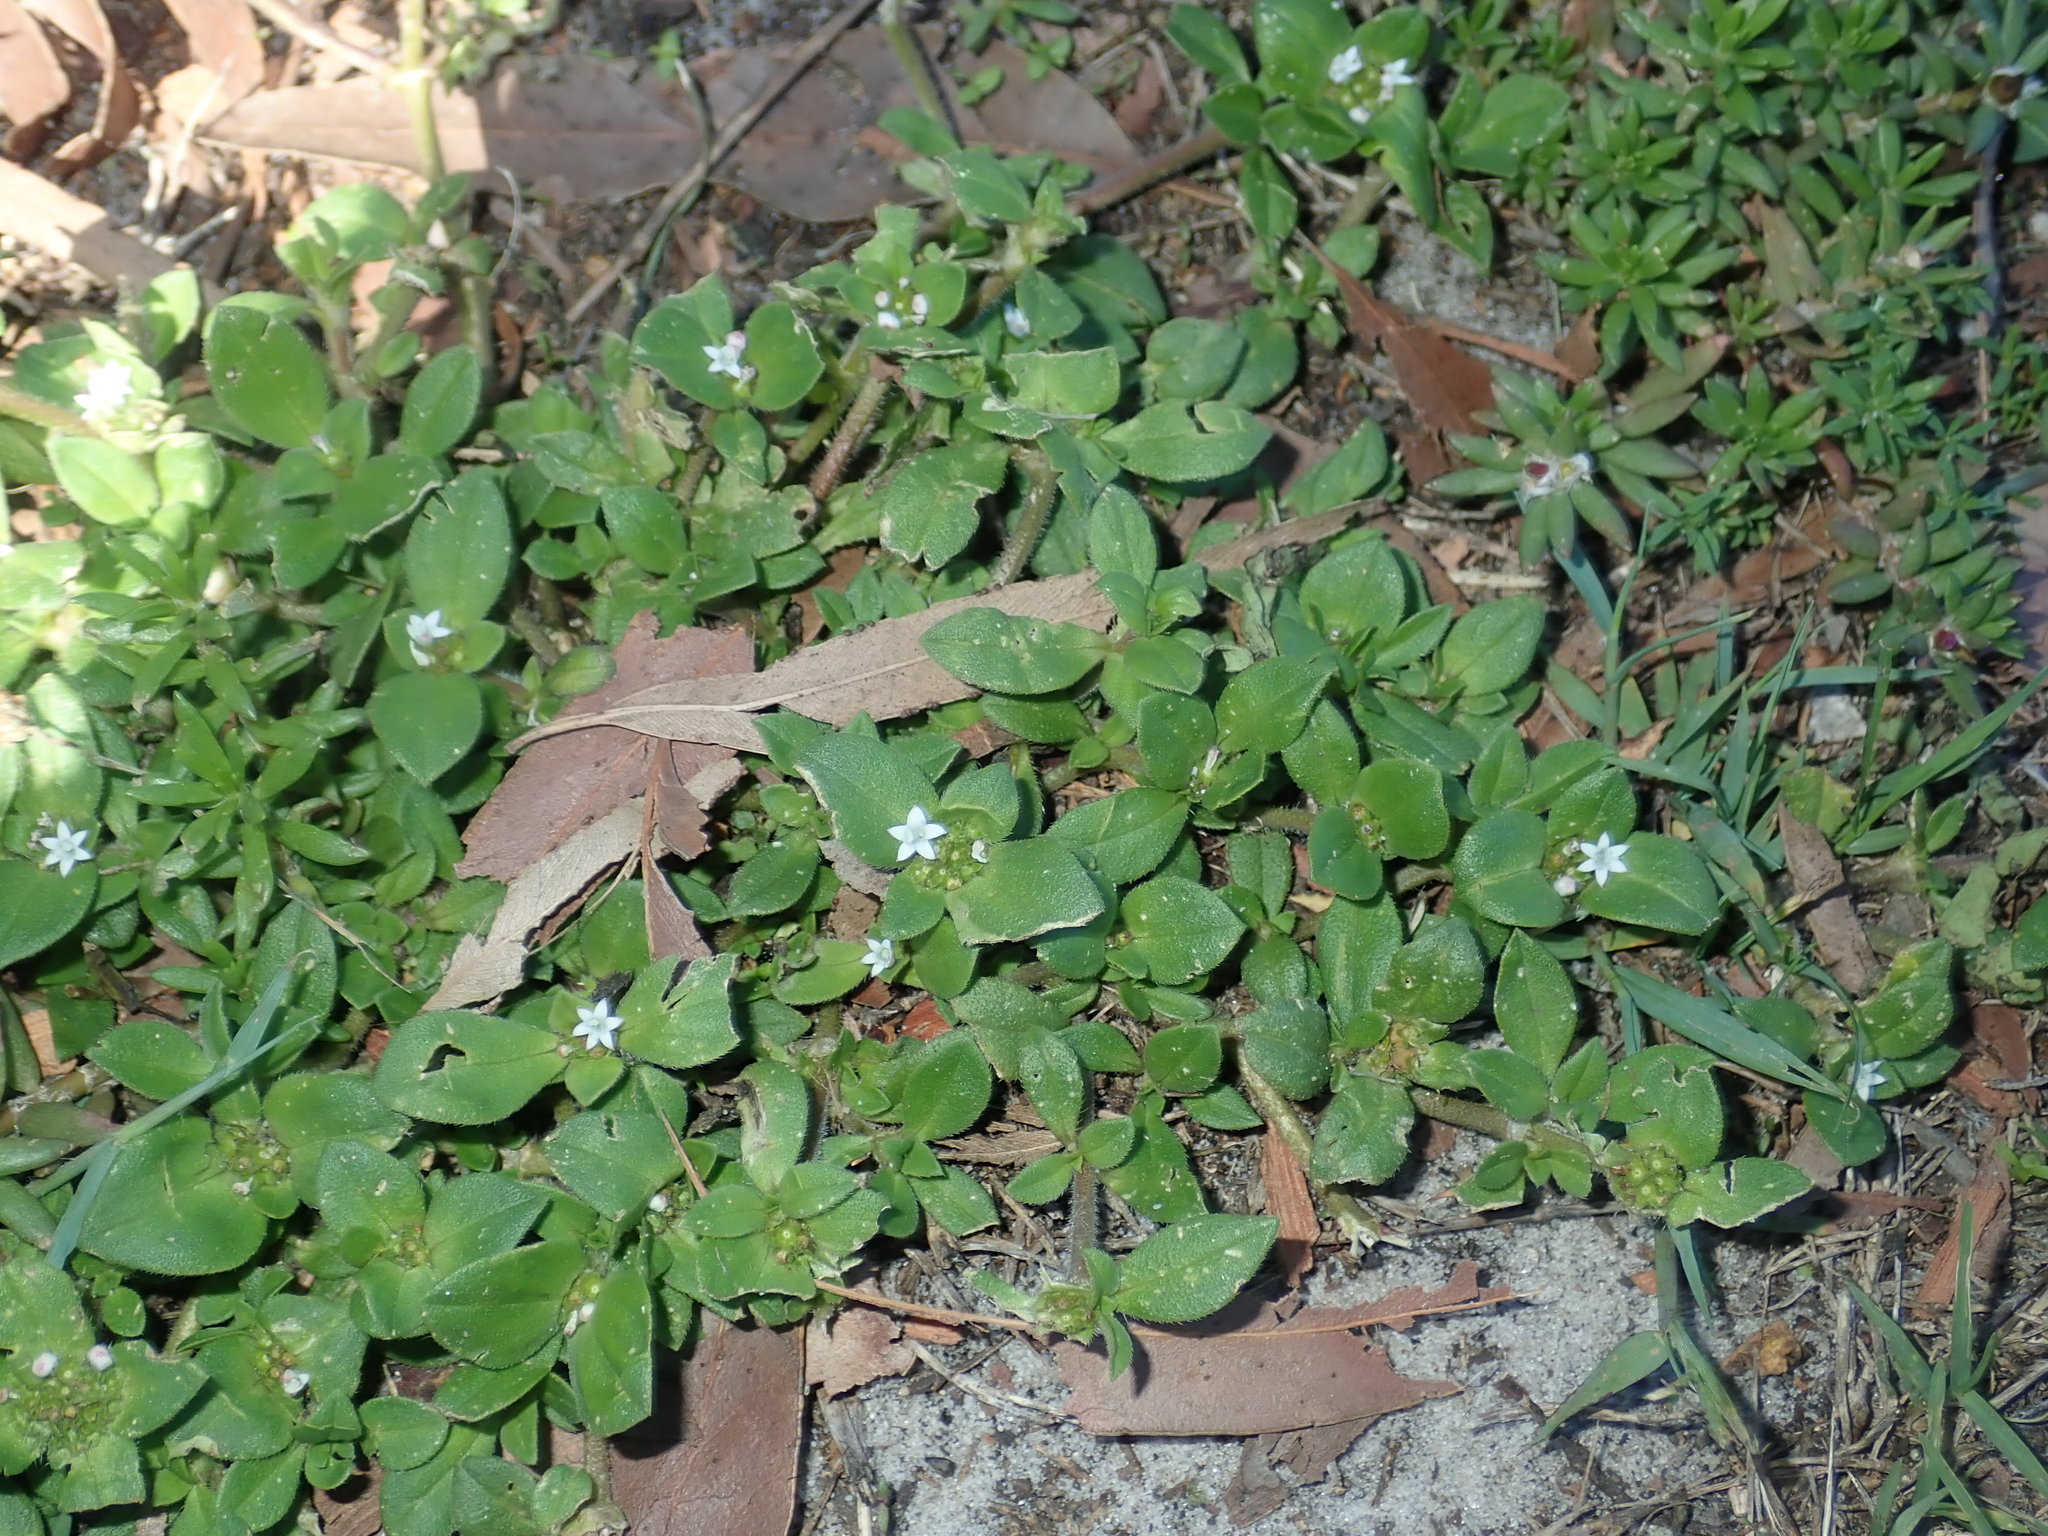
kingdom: Plantae
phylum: Tracheophyta
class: Magnoliopsida
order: Gentianales
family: Rubiaceae
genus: Richardia
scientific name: Richardia brasiliensis
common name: Tropical mexican clover
